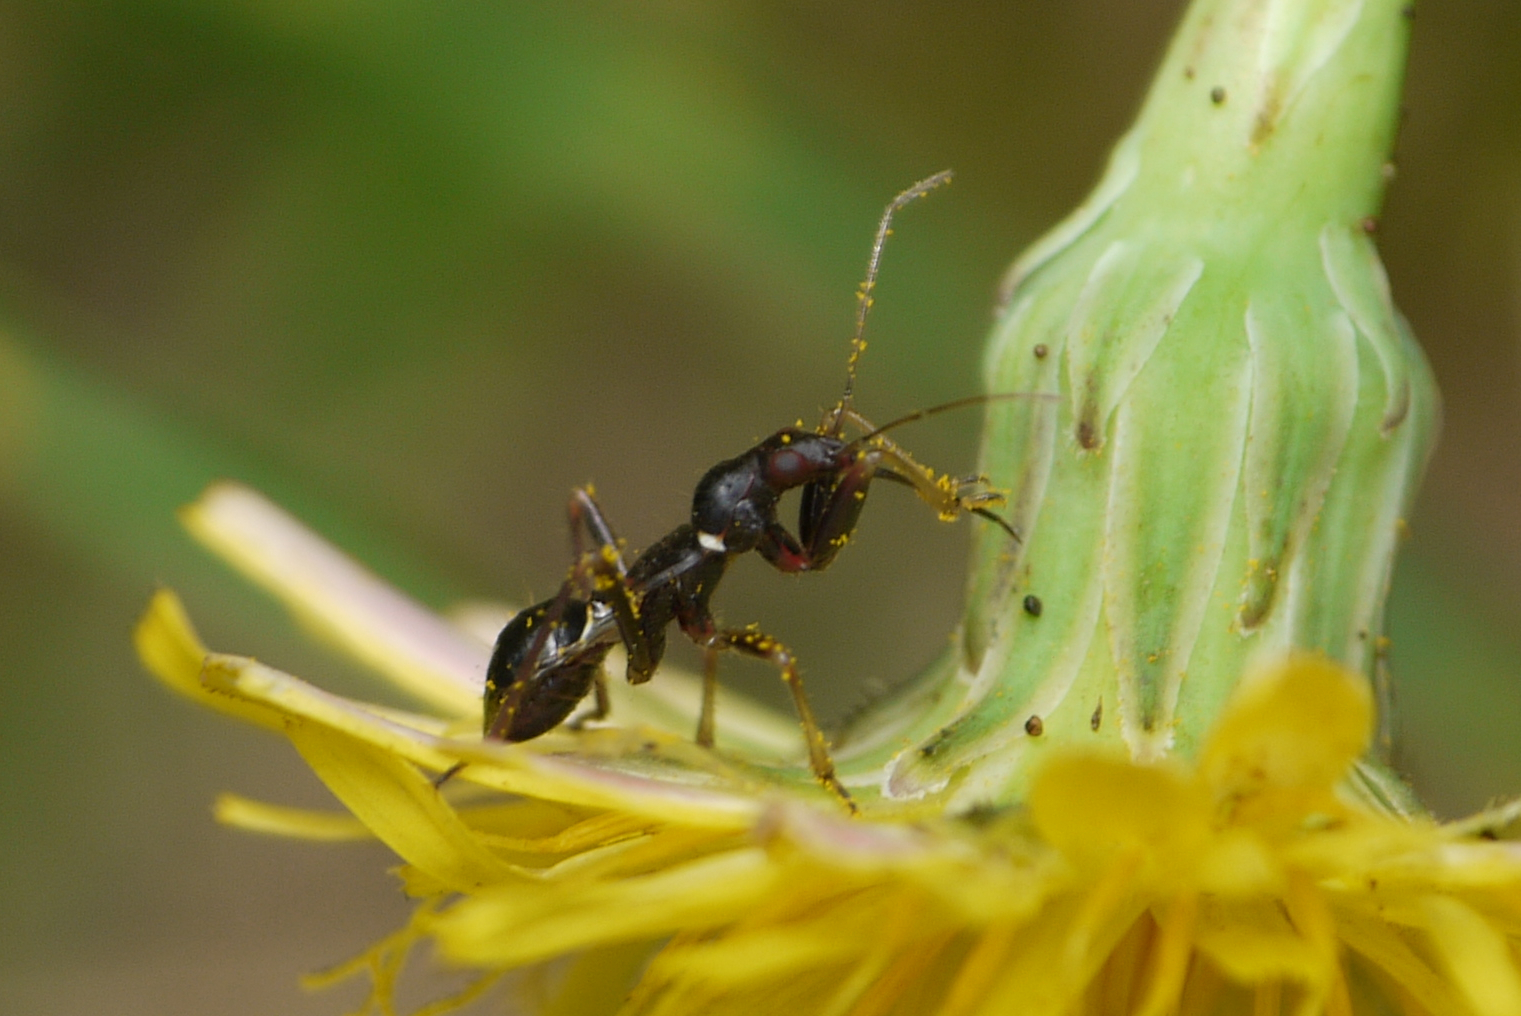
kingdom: Animalia
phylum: Arthropoda
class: Insecta
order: Hemiptera
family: Nabidae
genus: Himacerus
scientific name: Himacerus mirmicoides
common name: Ant damsel bug
